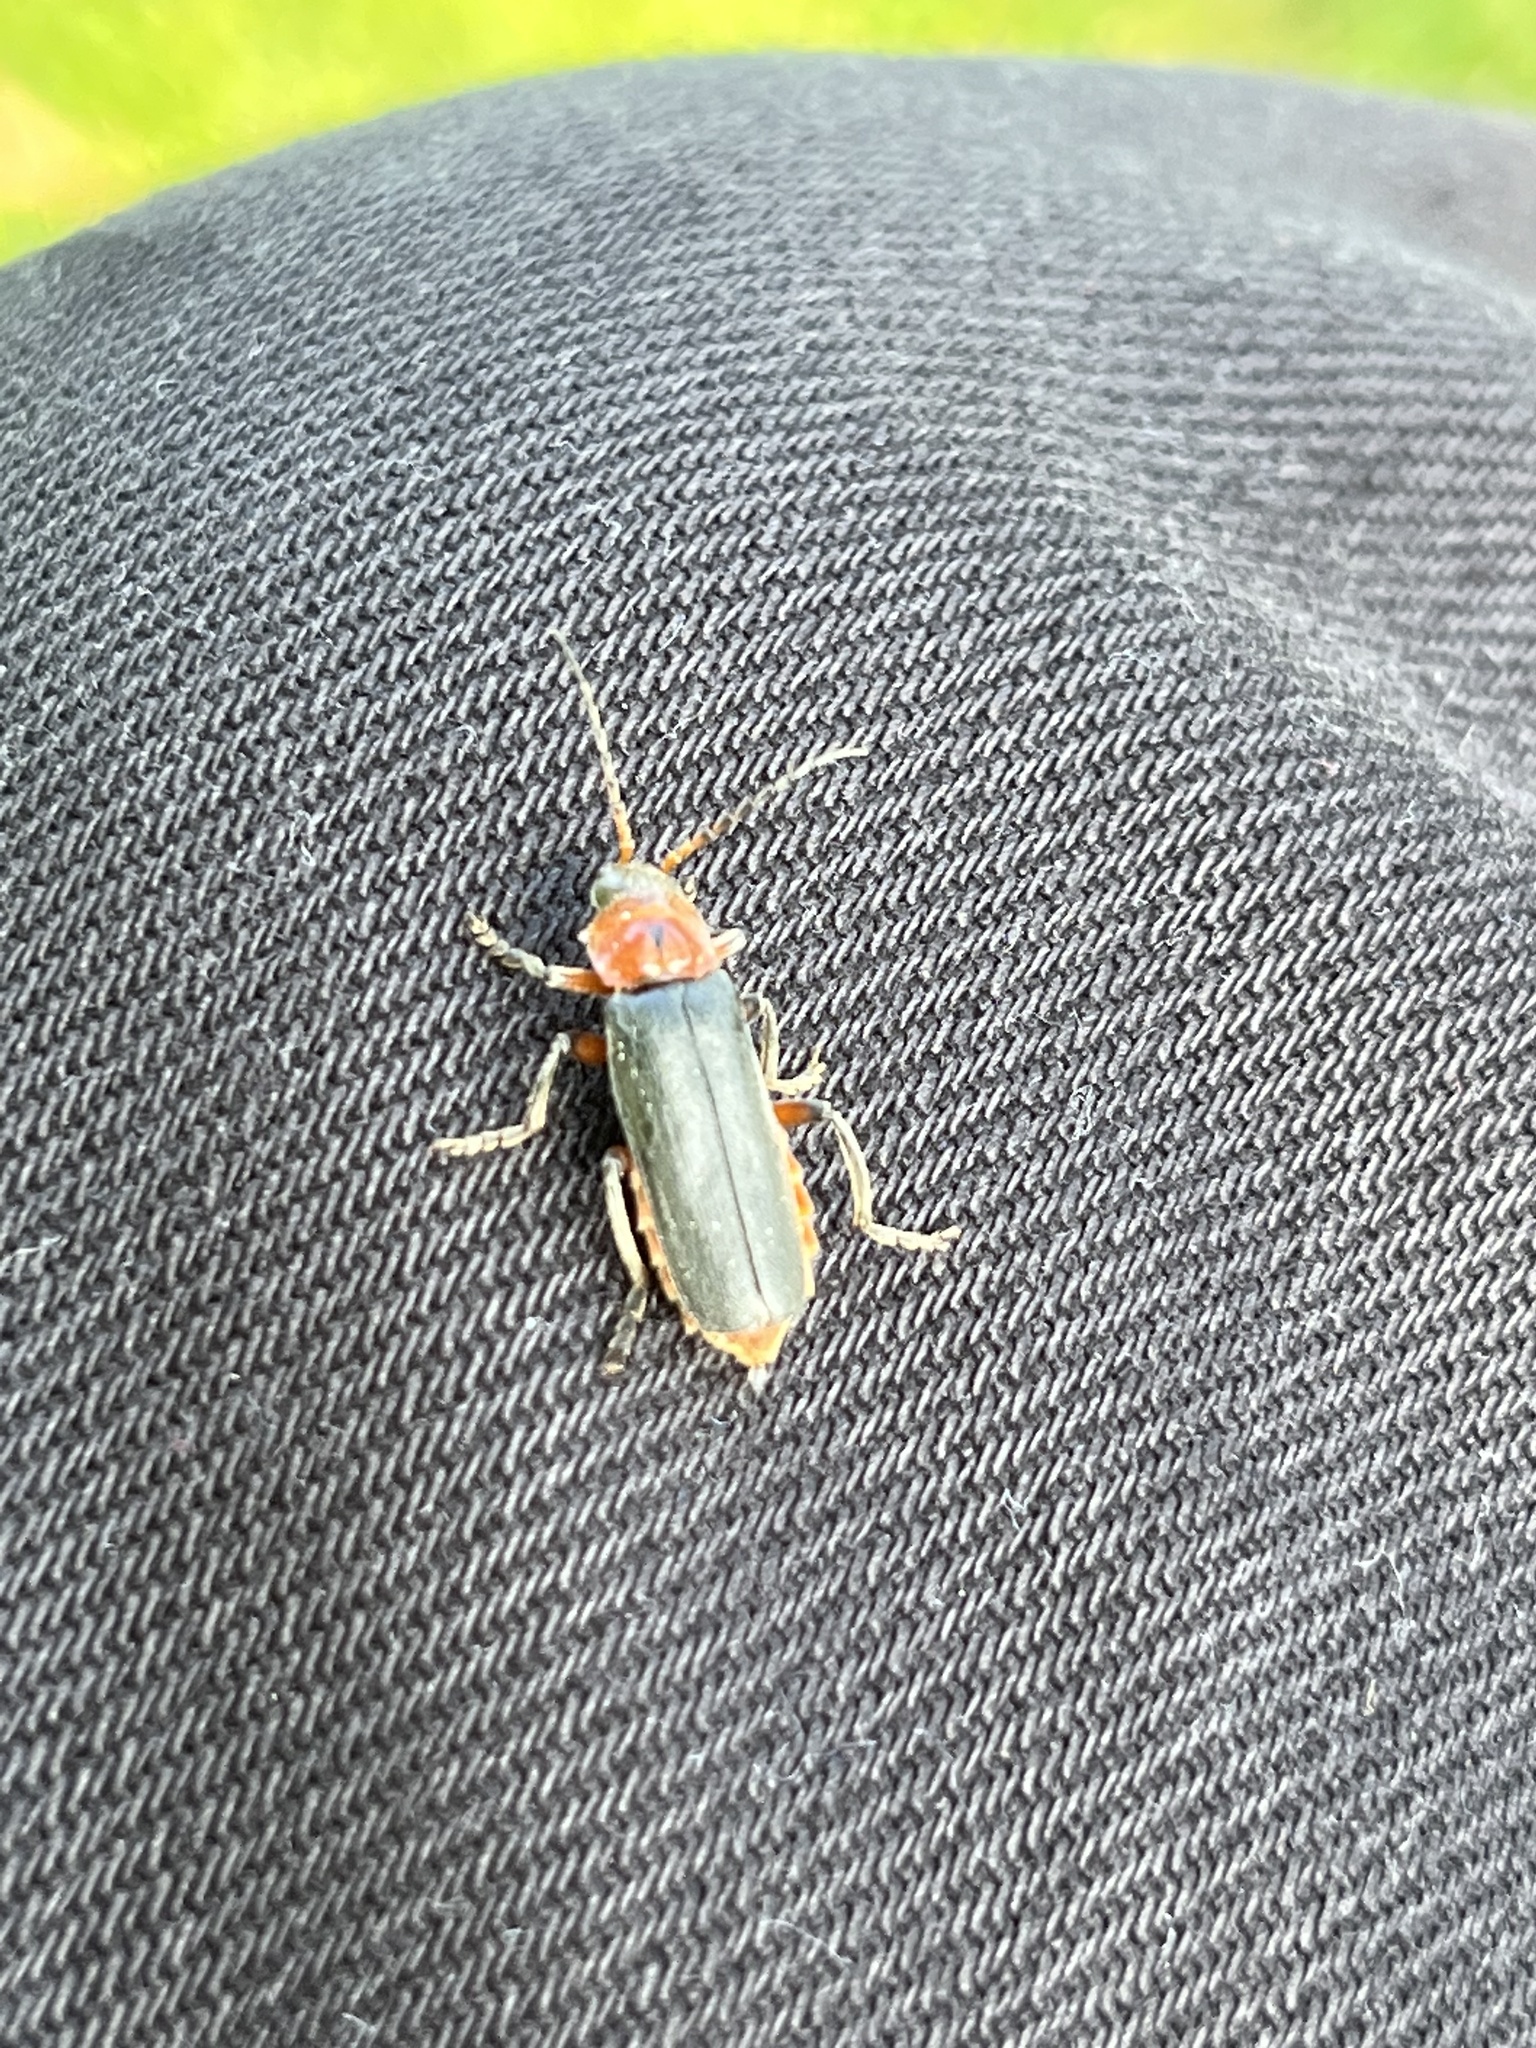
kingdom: Animalia
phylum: Arthropoda
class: Insecta
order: Coleoptera
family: Cantharidae
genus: Cantharis
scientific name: Cantharis rustica
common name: Soldier beetle
